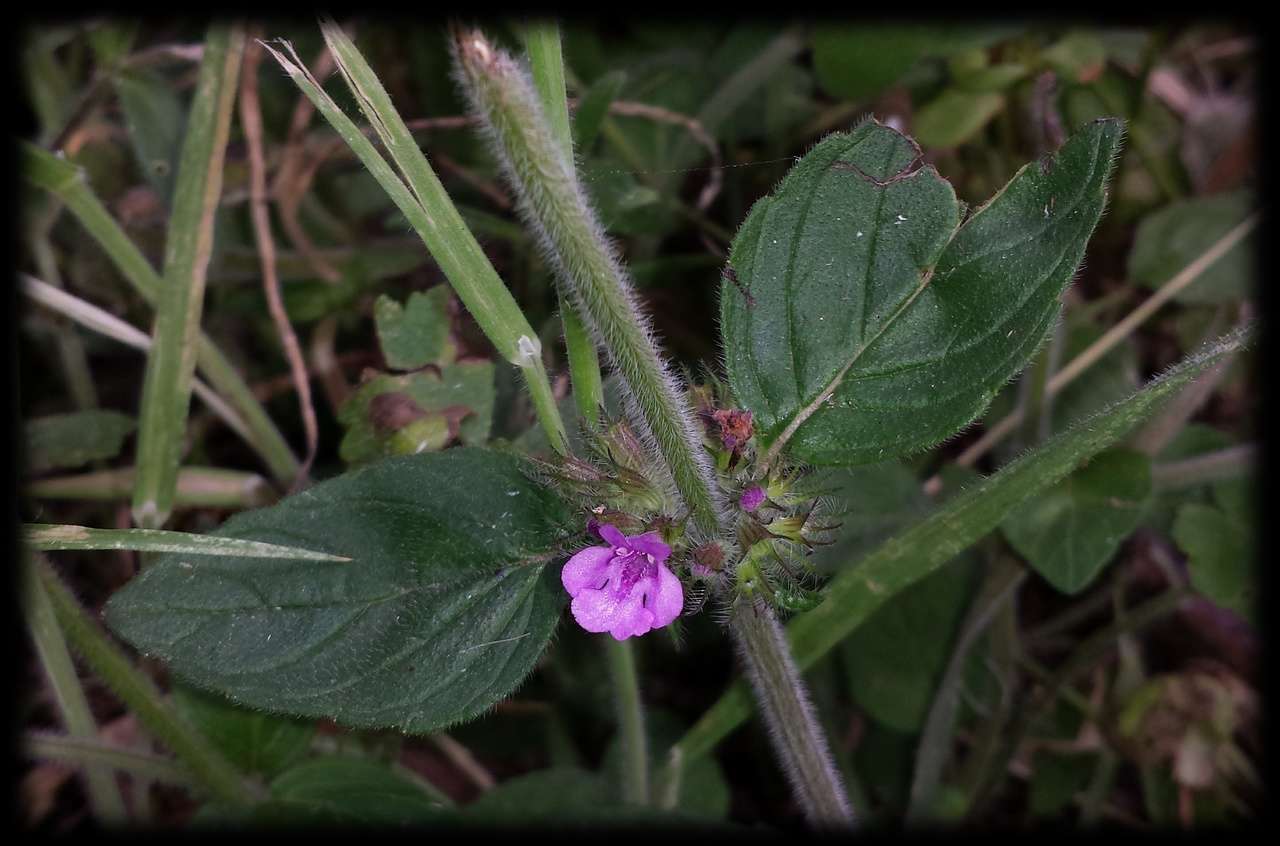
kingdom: Plantae
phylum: Tracheophyta
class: Magnoliopsida
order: Lamiales
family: Lamiaceae
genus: Clinopodium
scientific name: Clinopodium vulgare
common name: Wild basil
